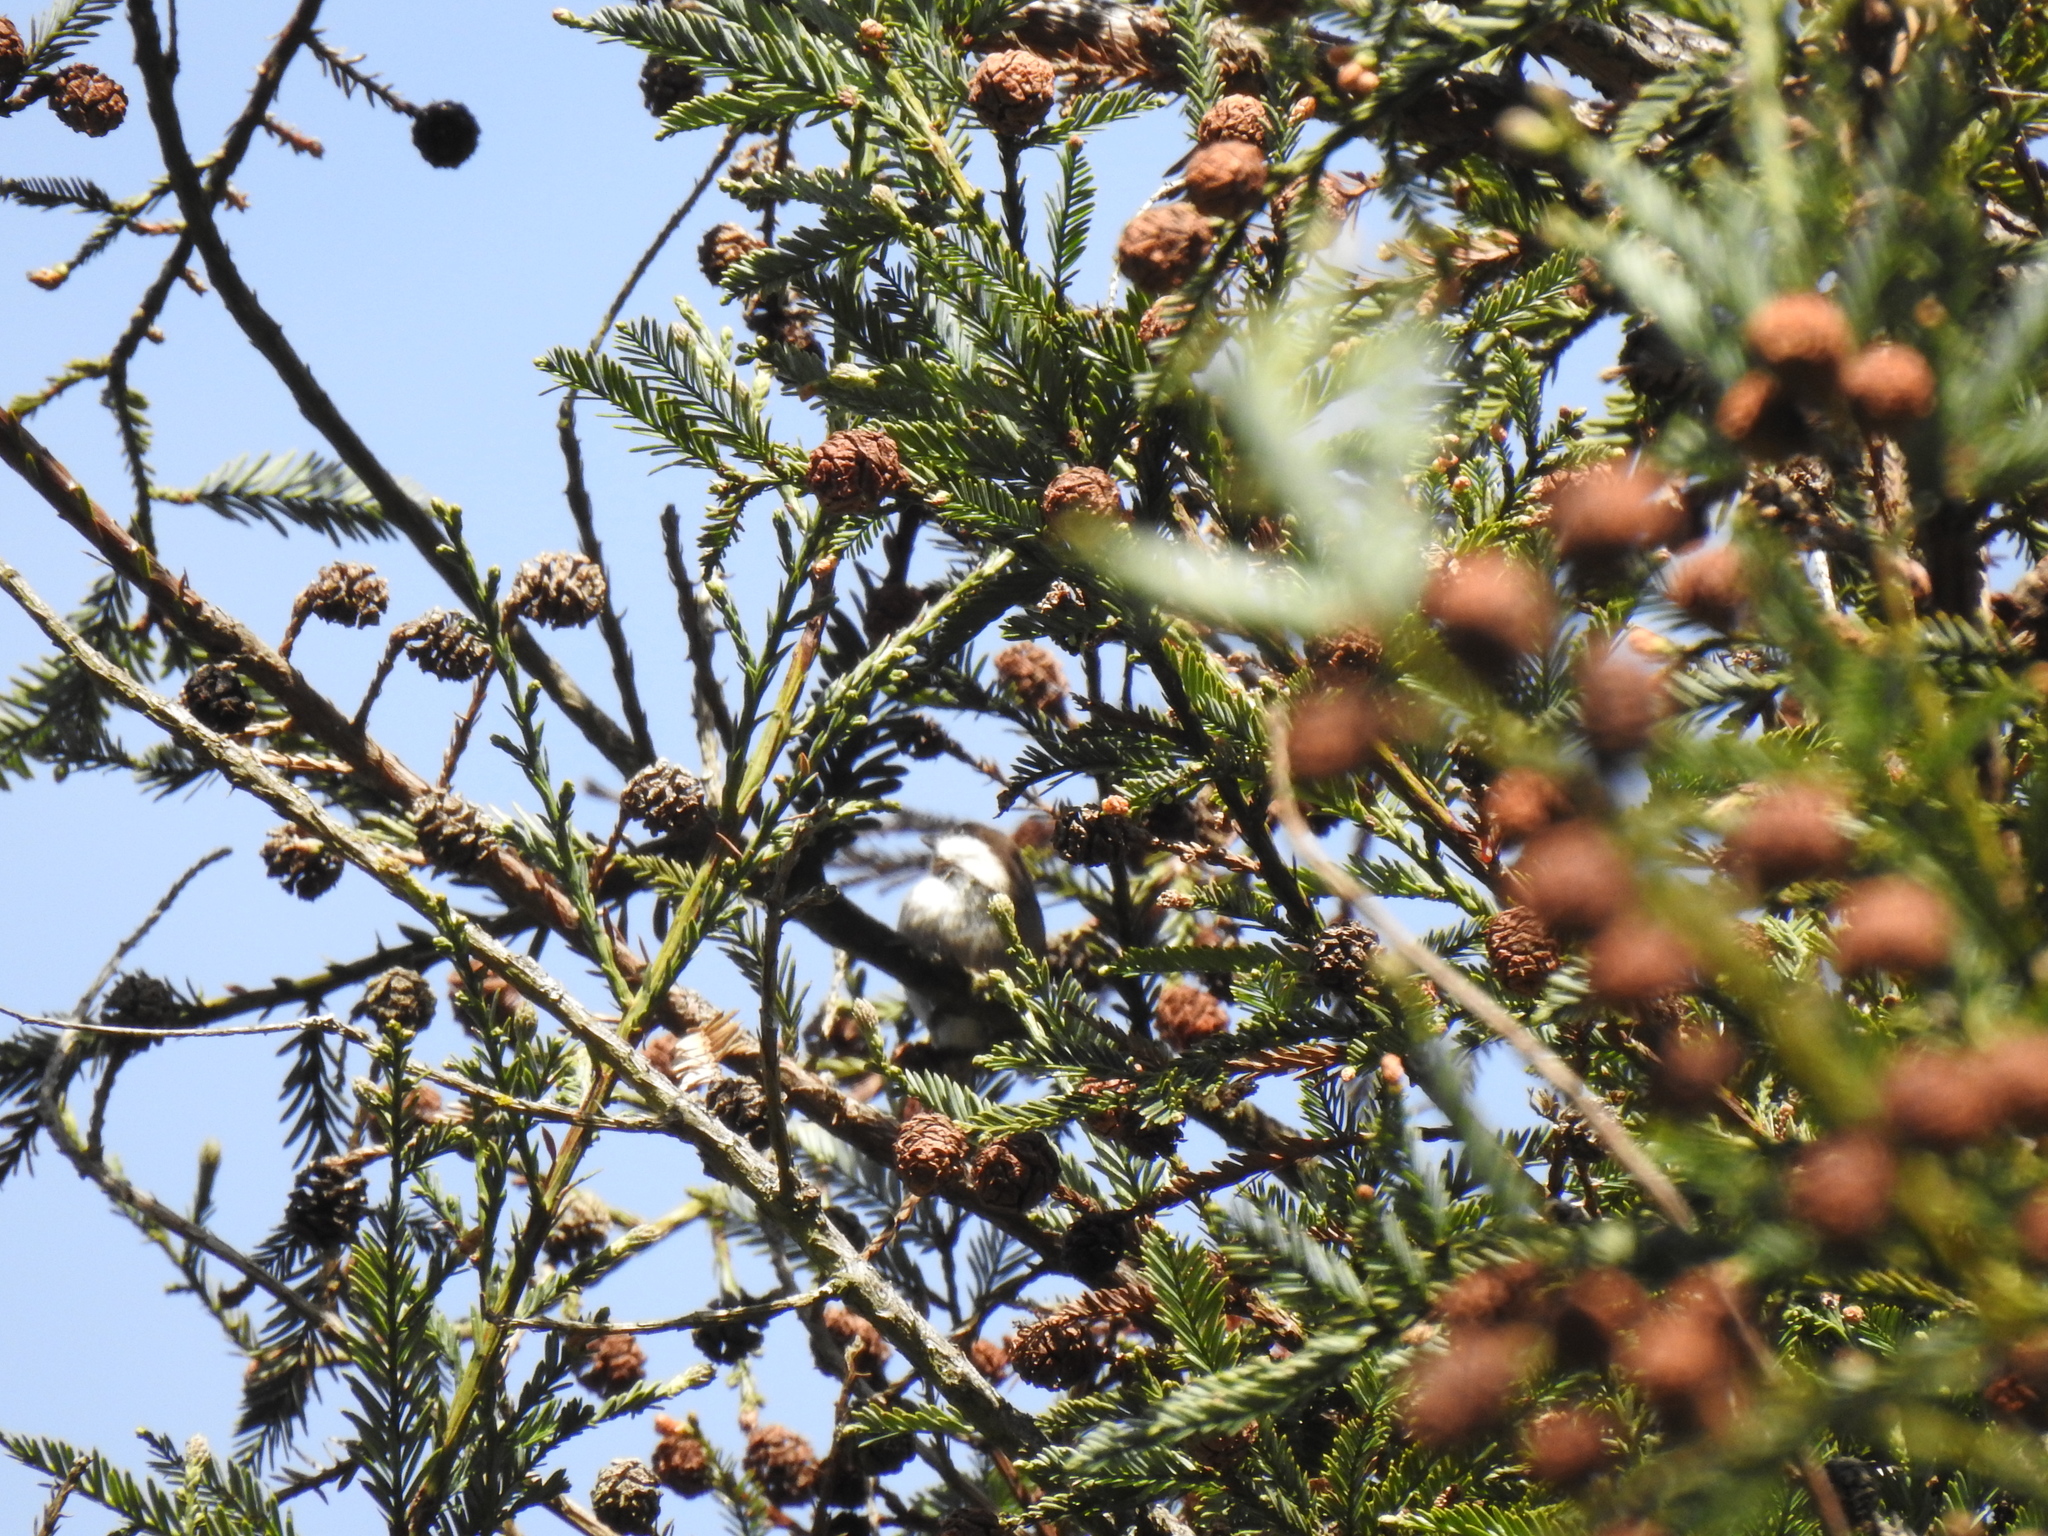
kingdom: Animalia
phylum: Chordata
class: Aves
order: Passeriformes
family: Paridae
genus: Poecile
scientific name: Poecile rufescens
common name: Chestnut-backed chickadee
